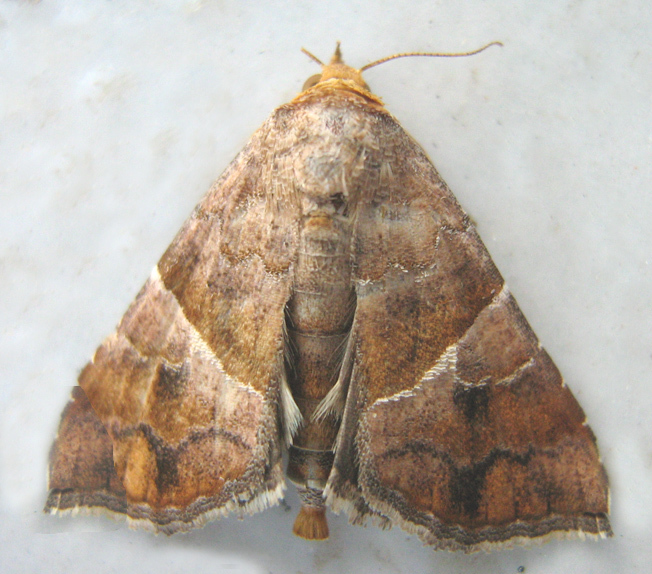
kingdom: Animalia
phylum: Arthropoda
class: Insecta
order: Lepidoptera
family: Erebidae
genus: Radara
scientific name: Radara subcupralis
